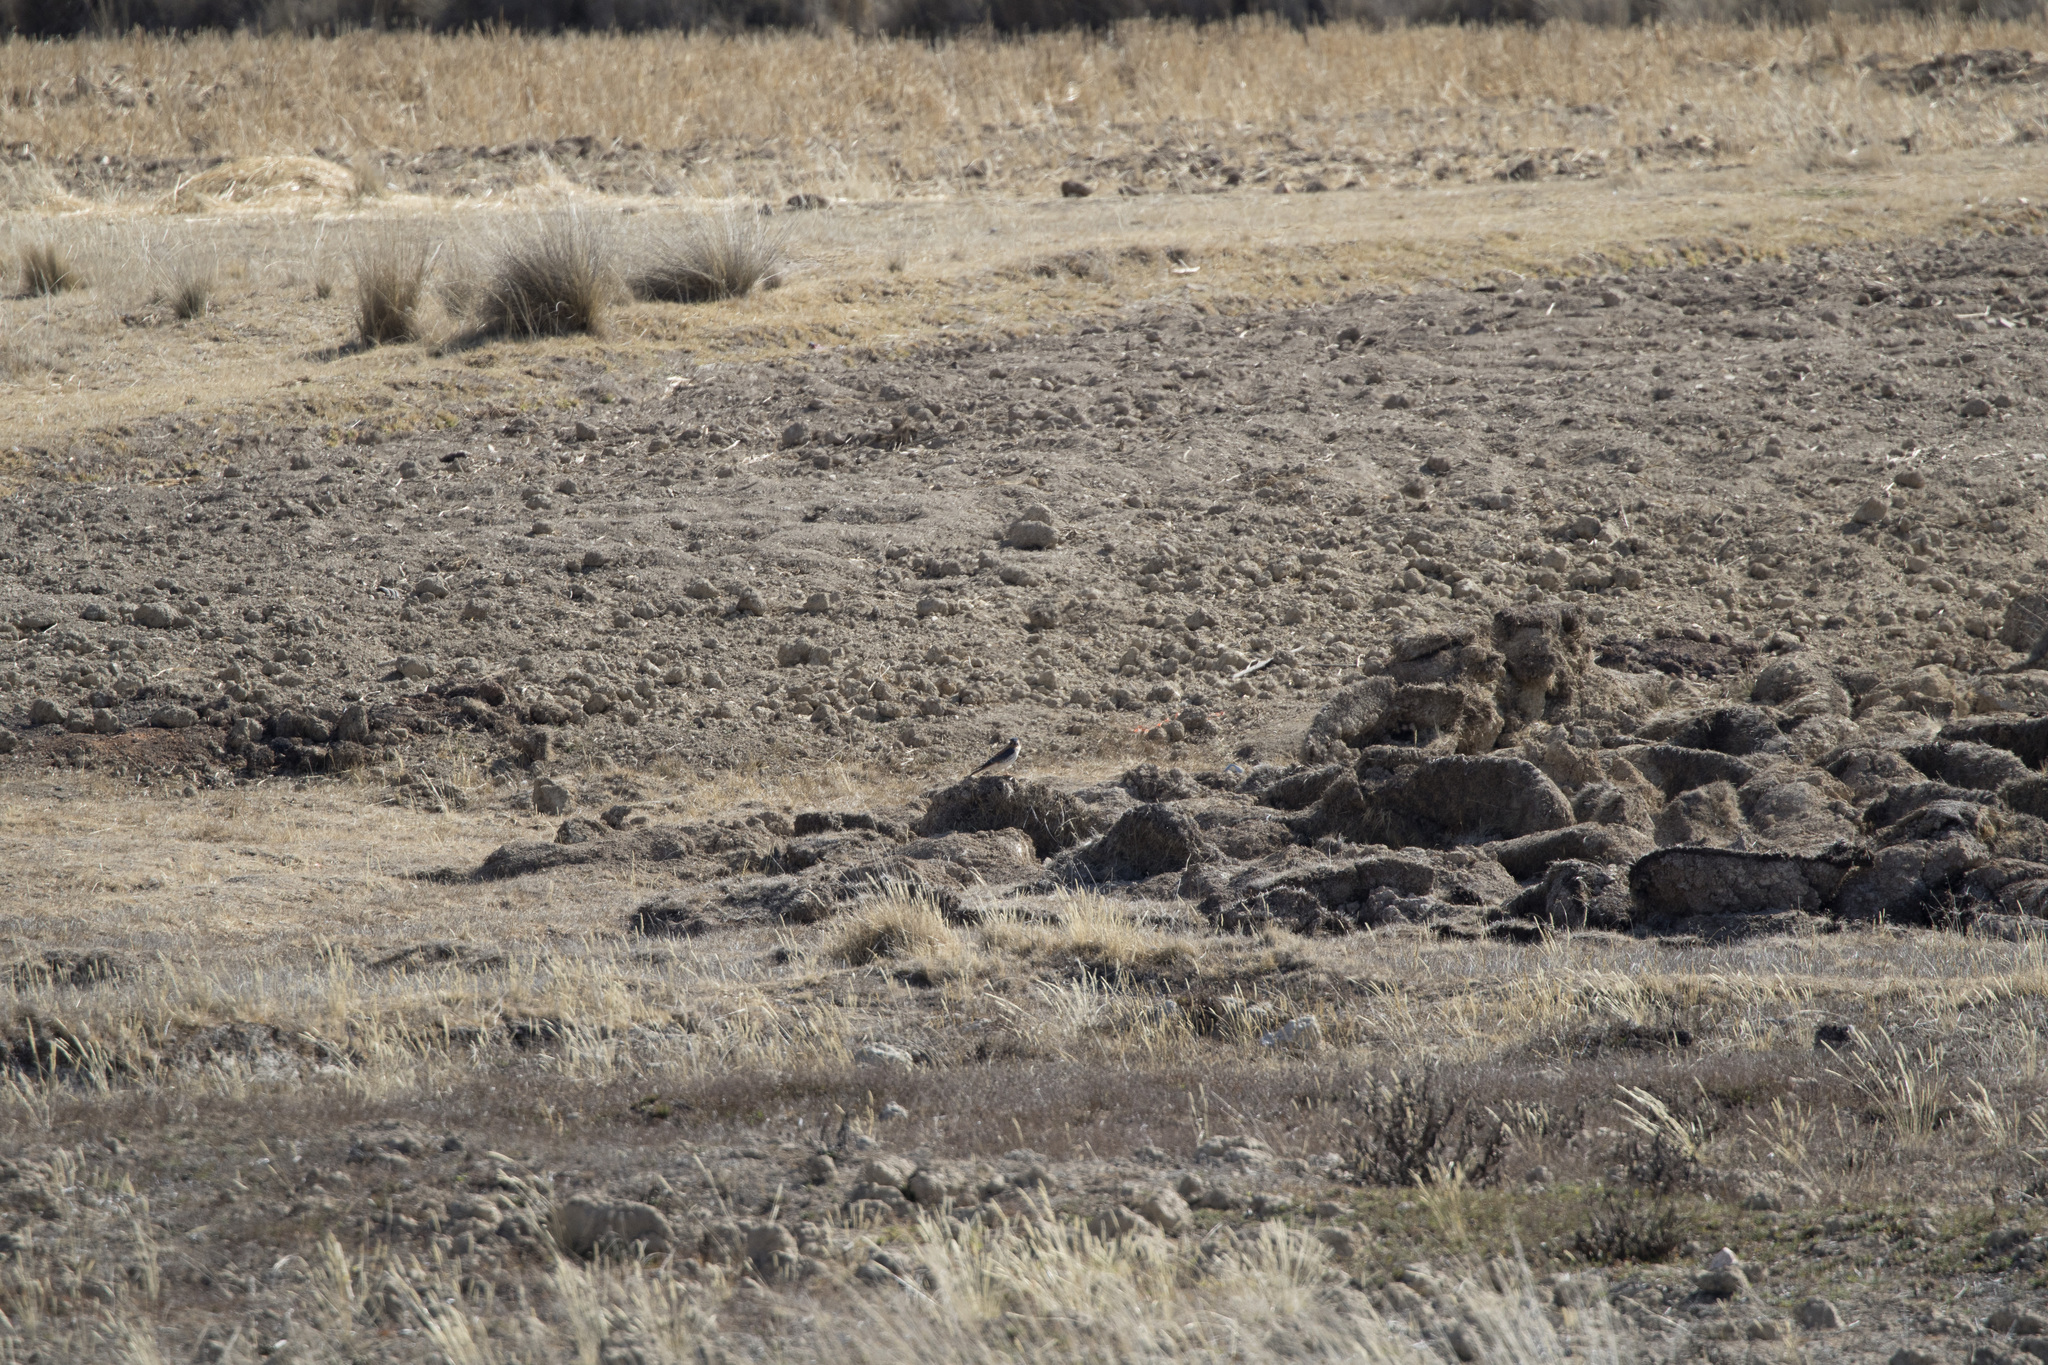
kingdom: Animalia
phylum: Chordata
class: Aves
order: Falconiformes
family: Falconidae
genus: Falco
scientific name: Falco sparverius
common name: American kestrel
